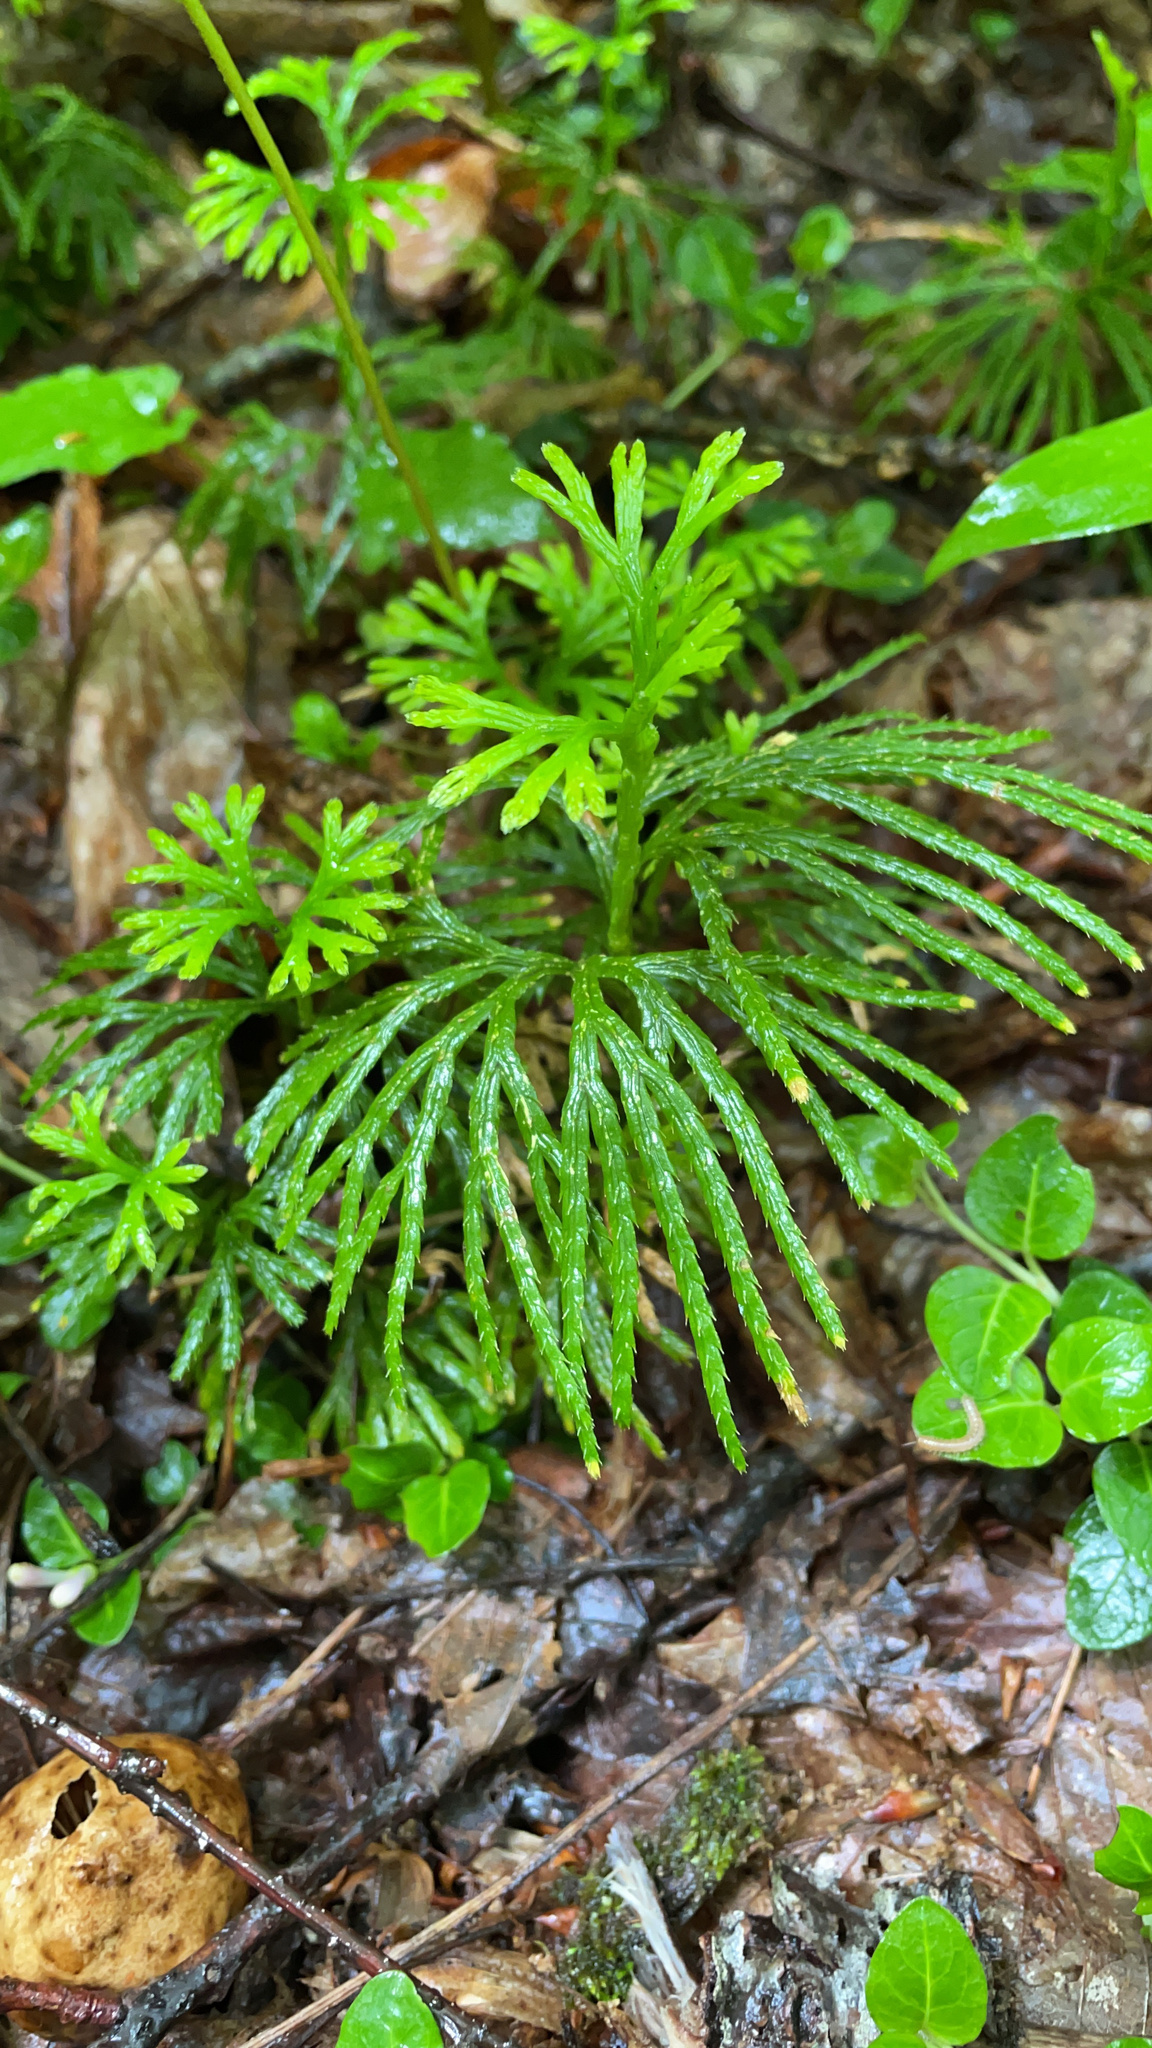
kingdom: Plantae
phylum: Tracheophyta
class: Lycopodiopsida
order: Lycopodiales
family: Lycopodiaceae
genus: Diphasiastrum
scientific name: Diphasiastrum digitatum
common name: Southern running-pine
